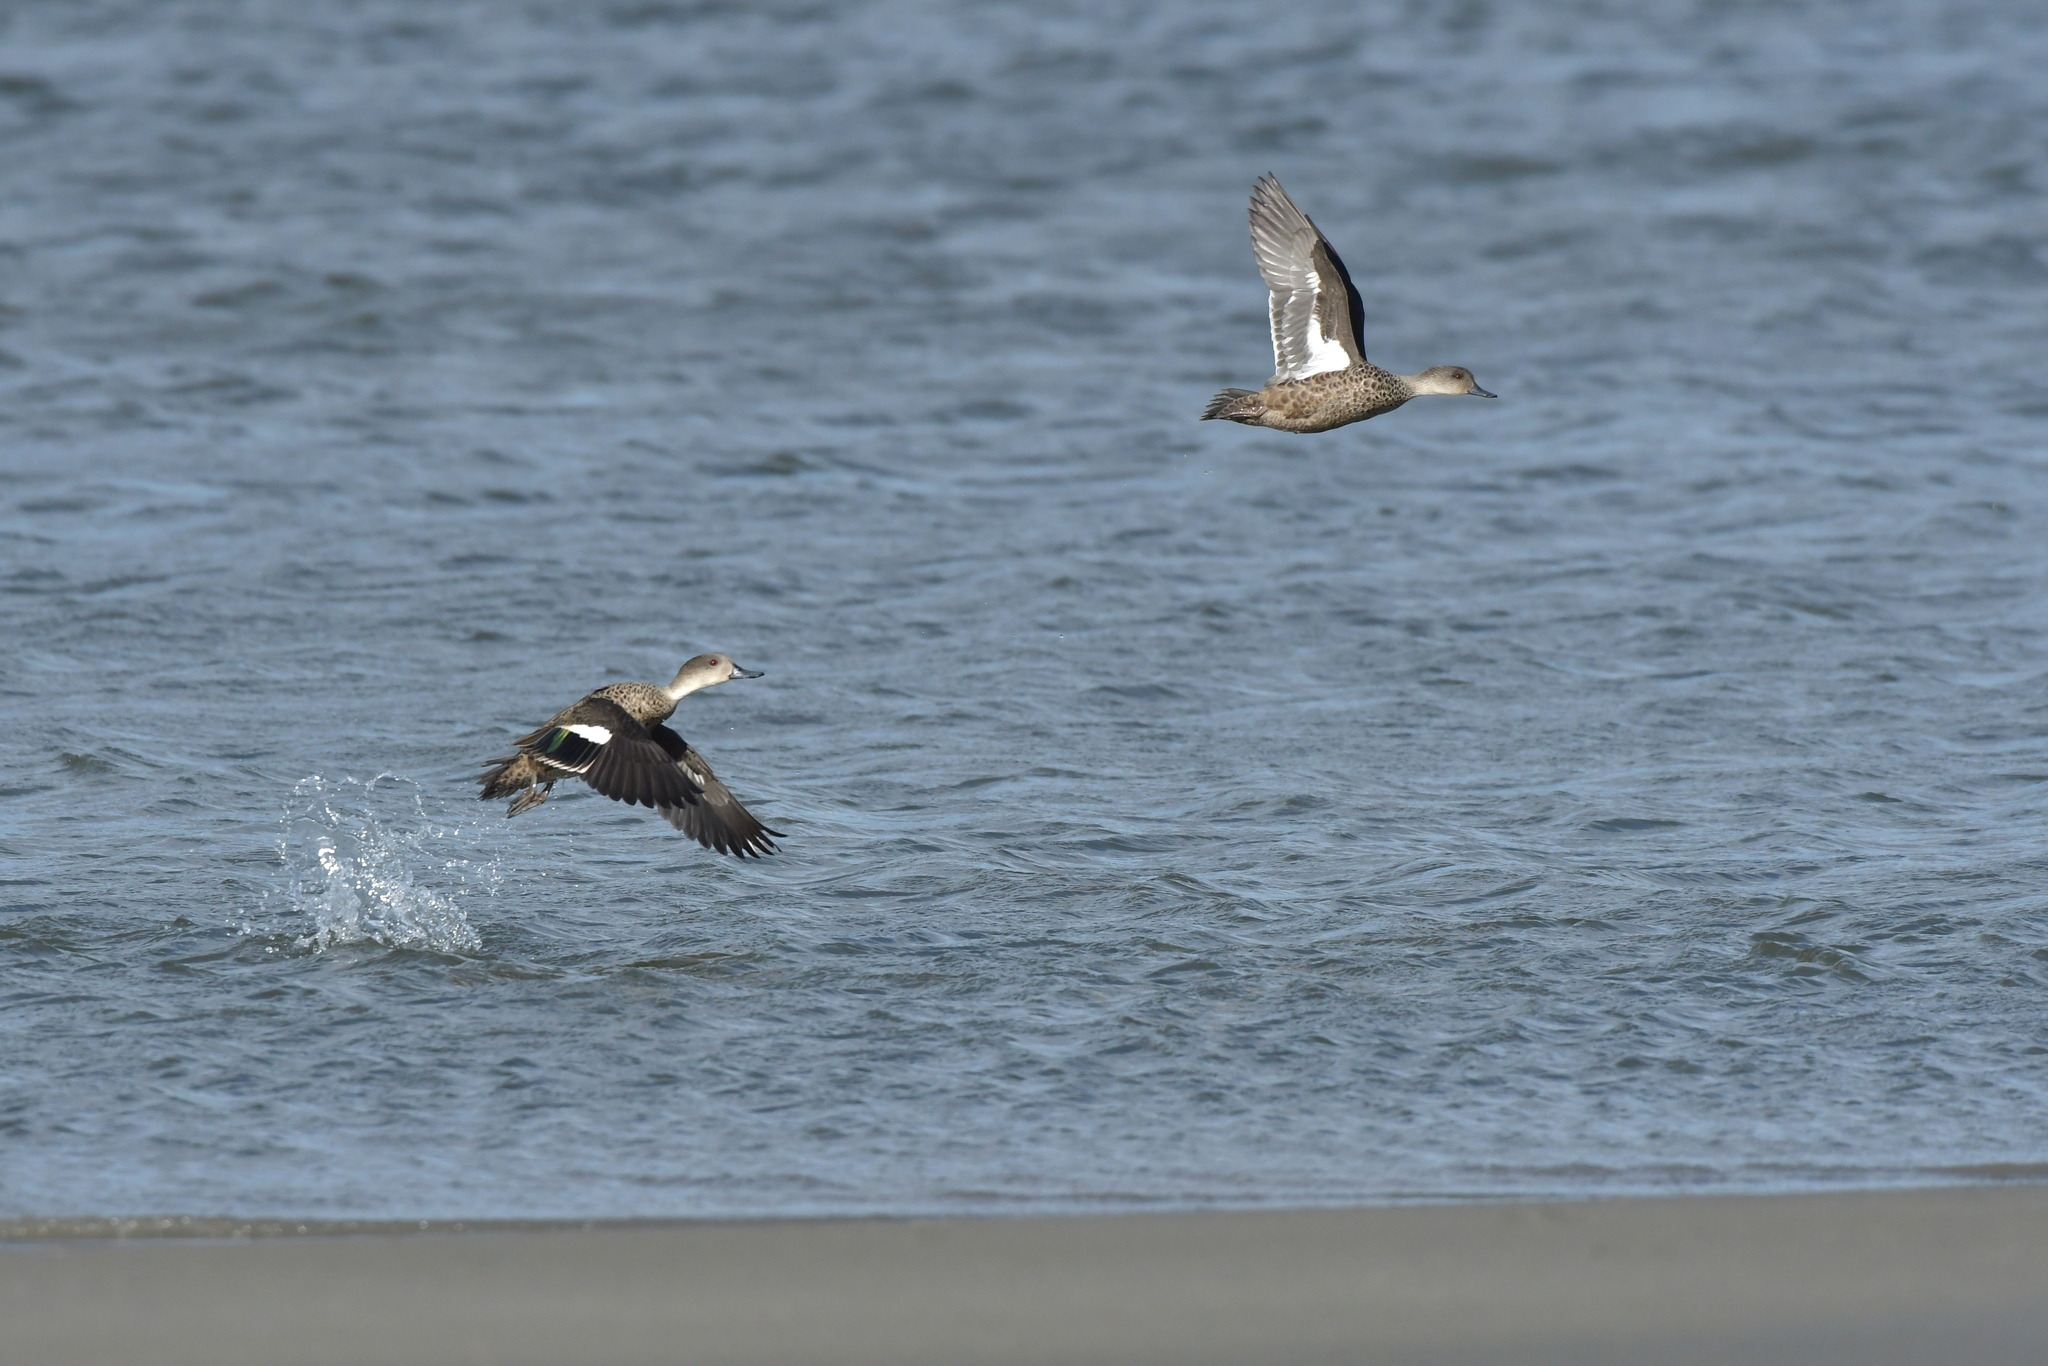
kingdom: Animalia
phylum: Chordata
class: Aves
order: Anseriformes
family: Anatidae
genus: Anas
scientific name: Anas gracilis
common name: Grey teal
